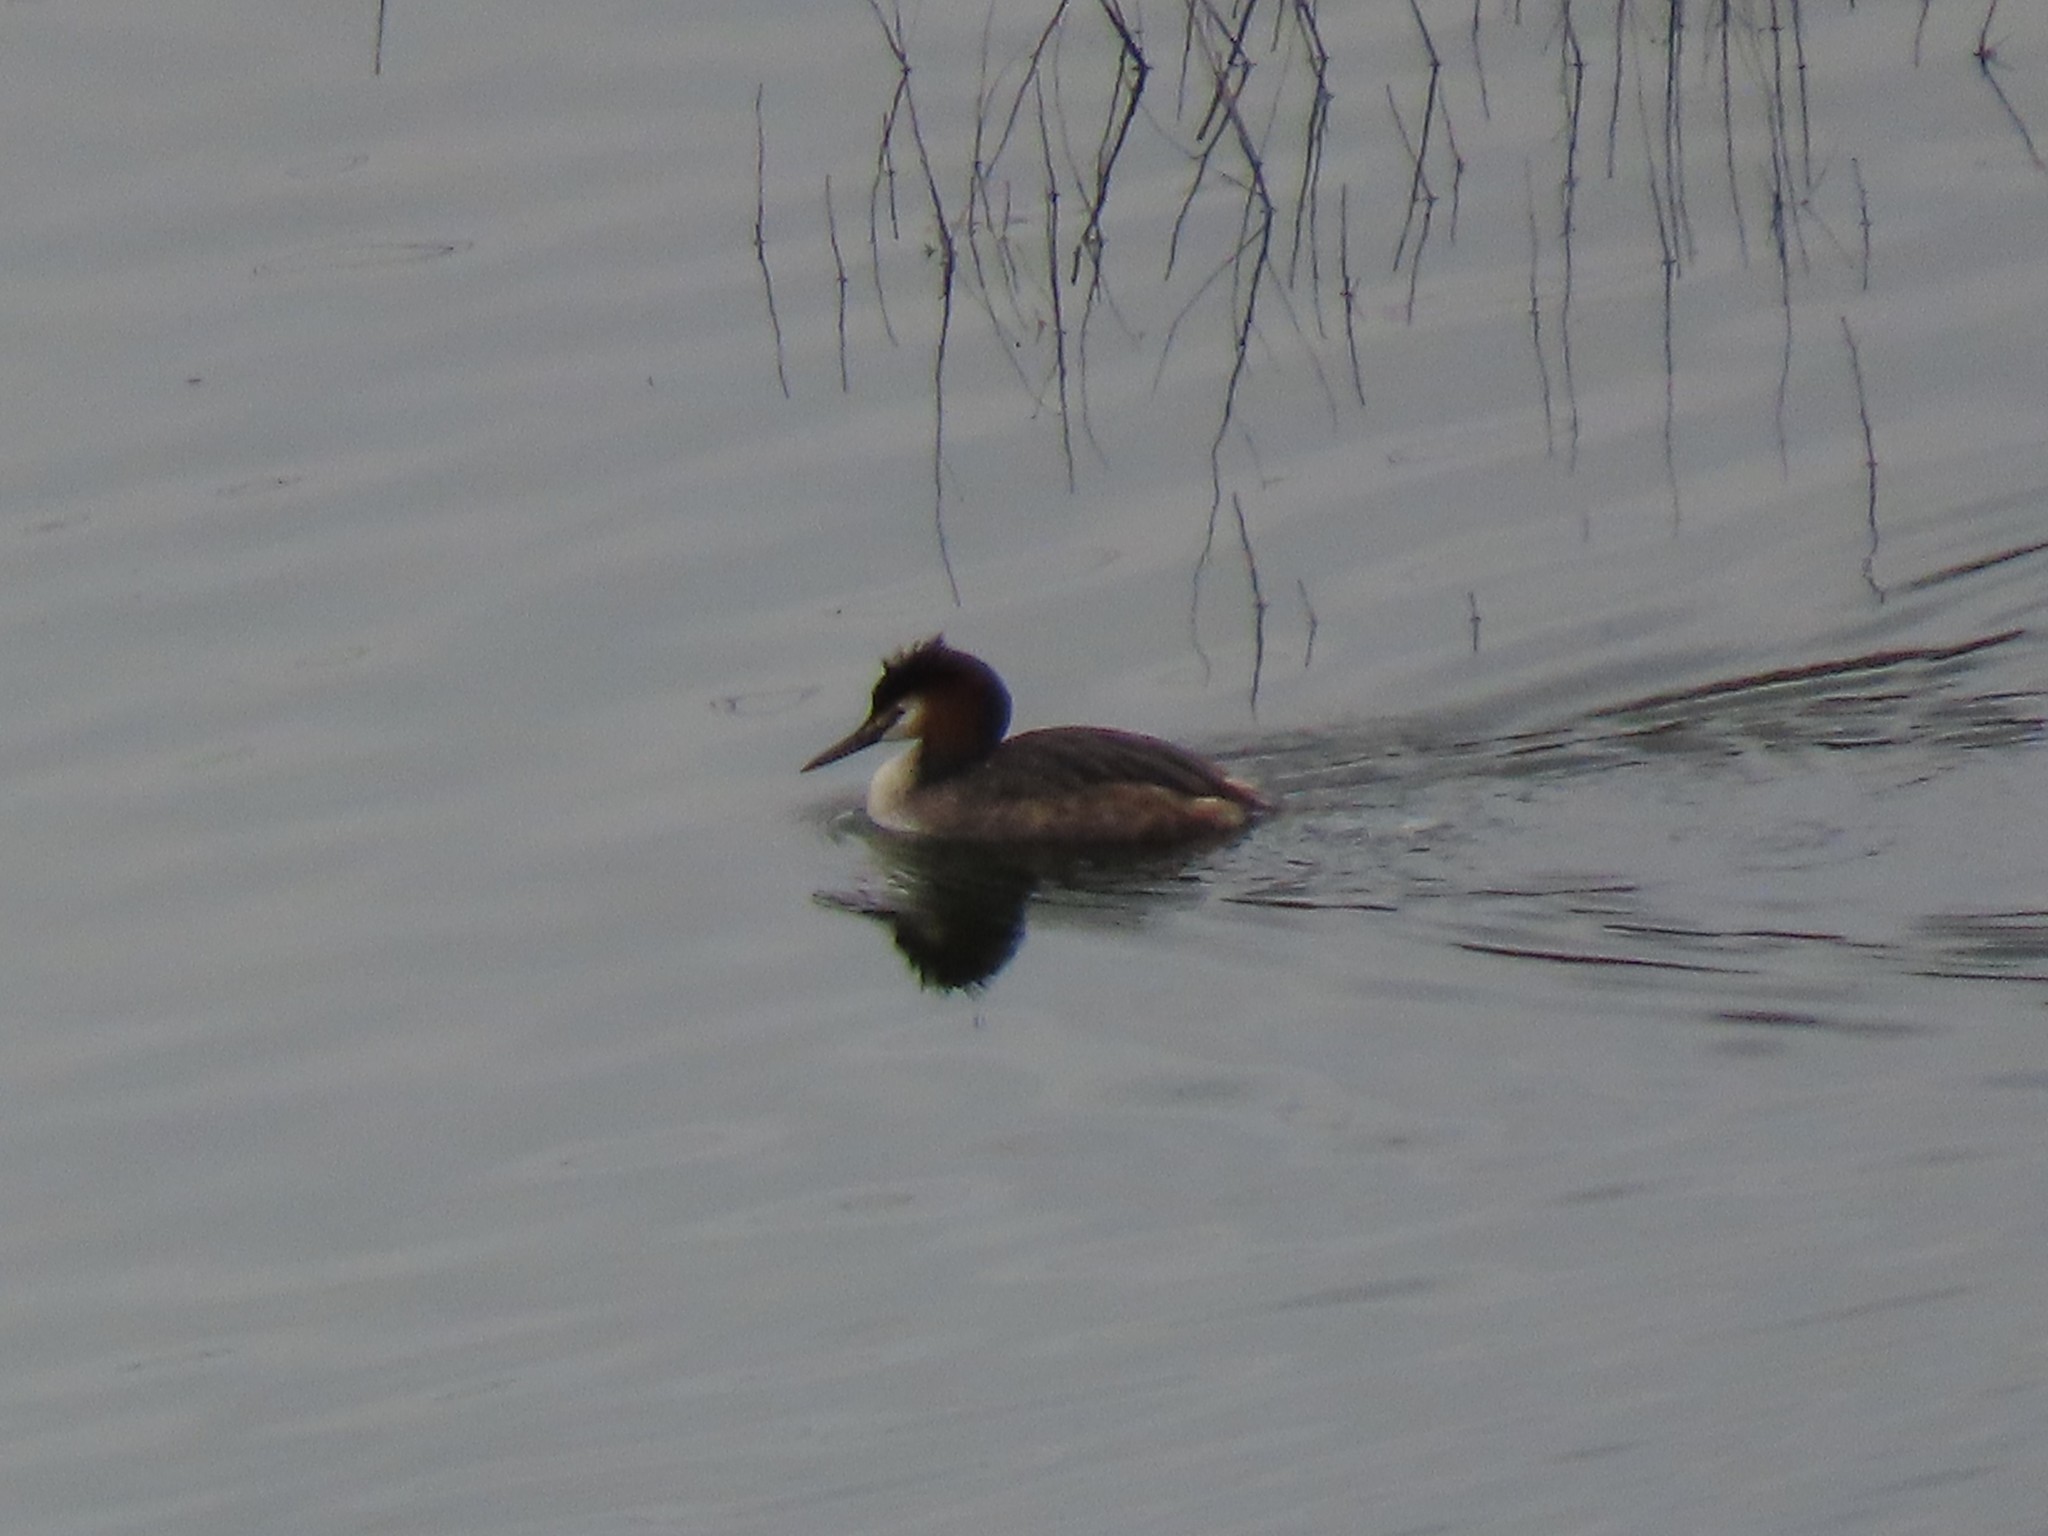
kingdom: Animalia
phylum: Chordata
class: Aves
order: Podicipediformes
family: Podicipedidae
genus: Podiceps
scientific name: Podiceps cristatus
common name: Great crested grebe
